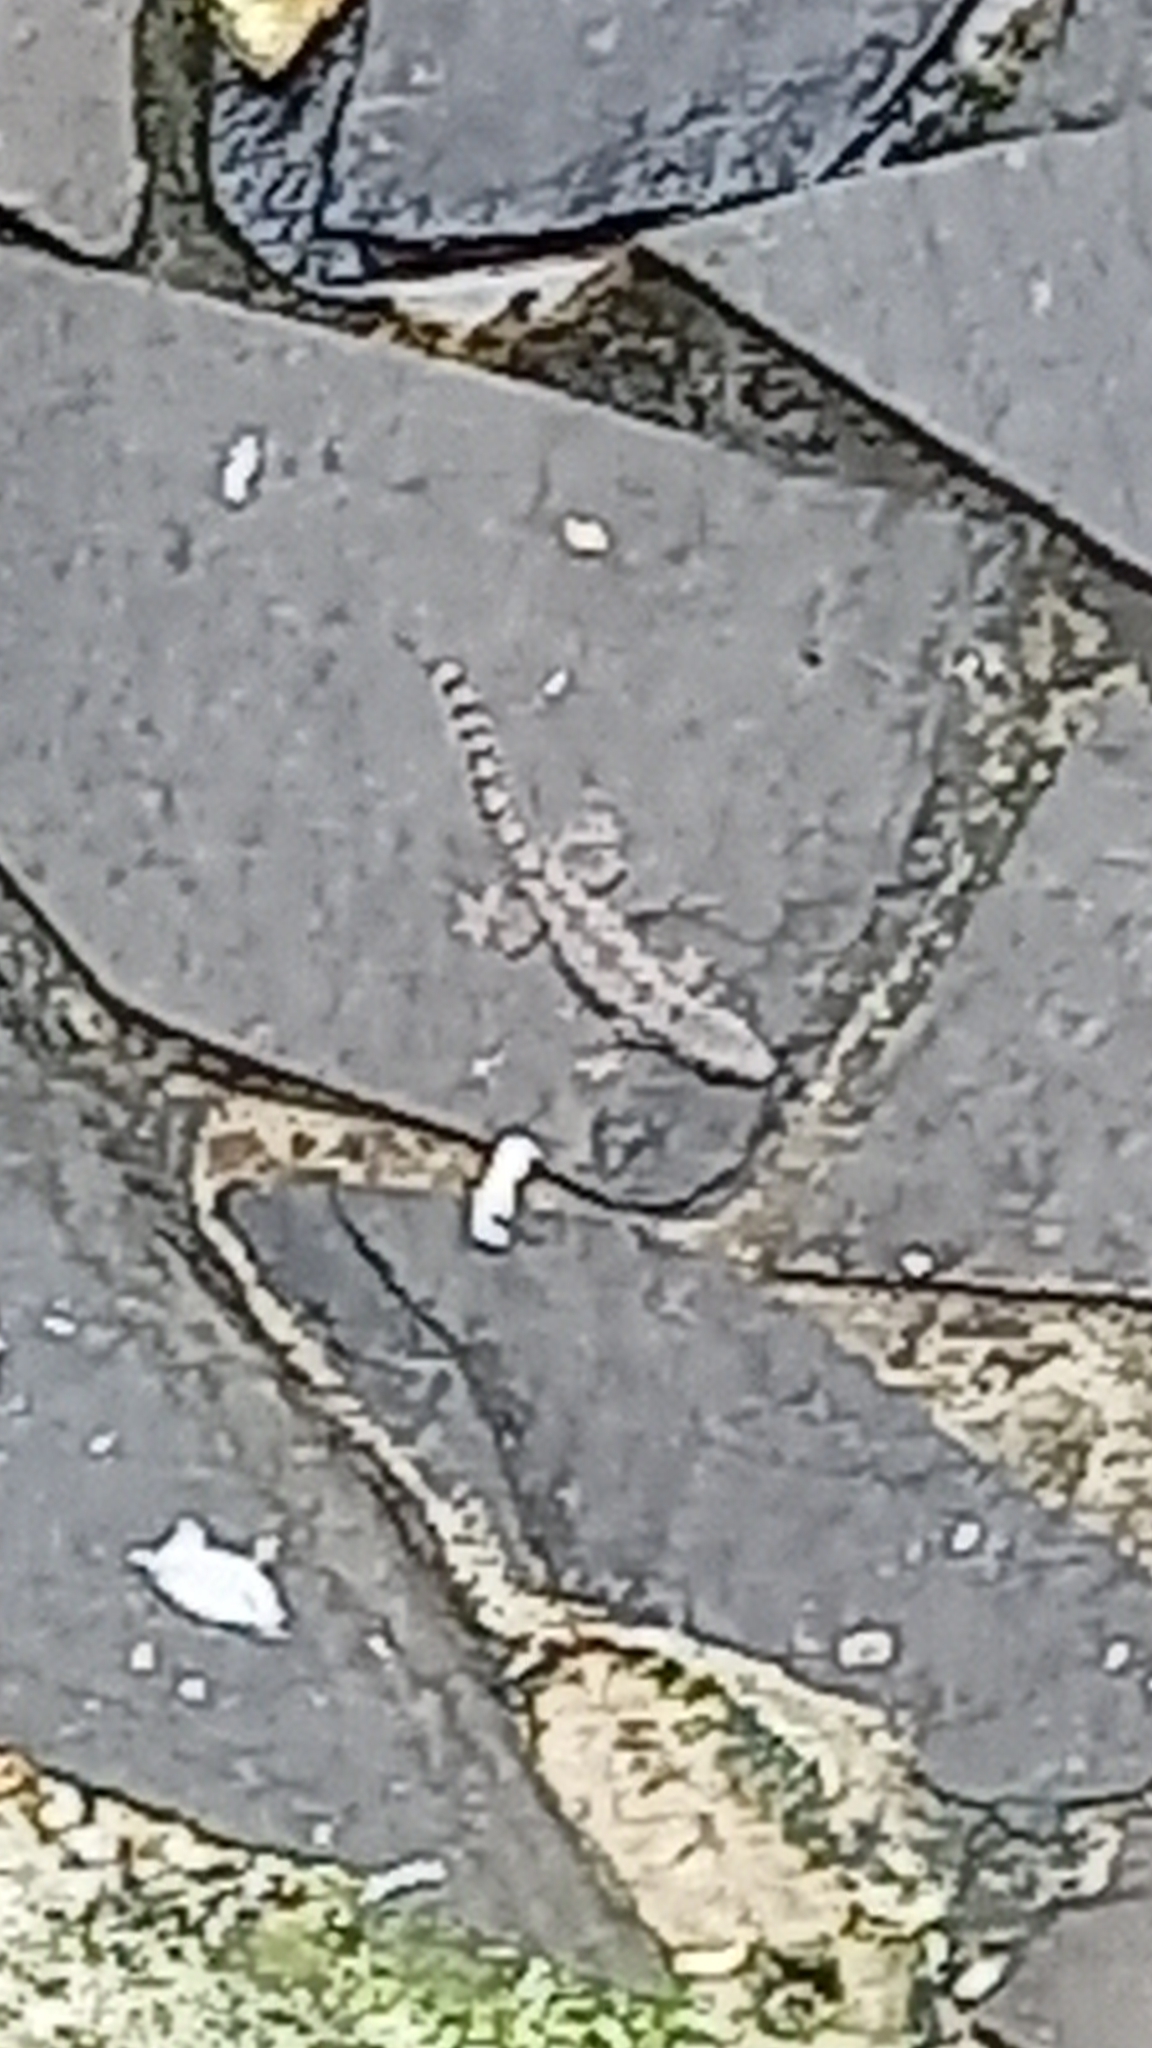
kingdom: Animalia
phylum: Chordata
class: Squamata
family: Gekkonidae
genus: Hemidactylus
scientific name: Hemidactylus platyurus
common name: Flat-tailed house gecko
